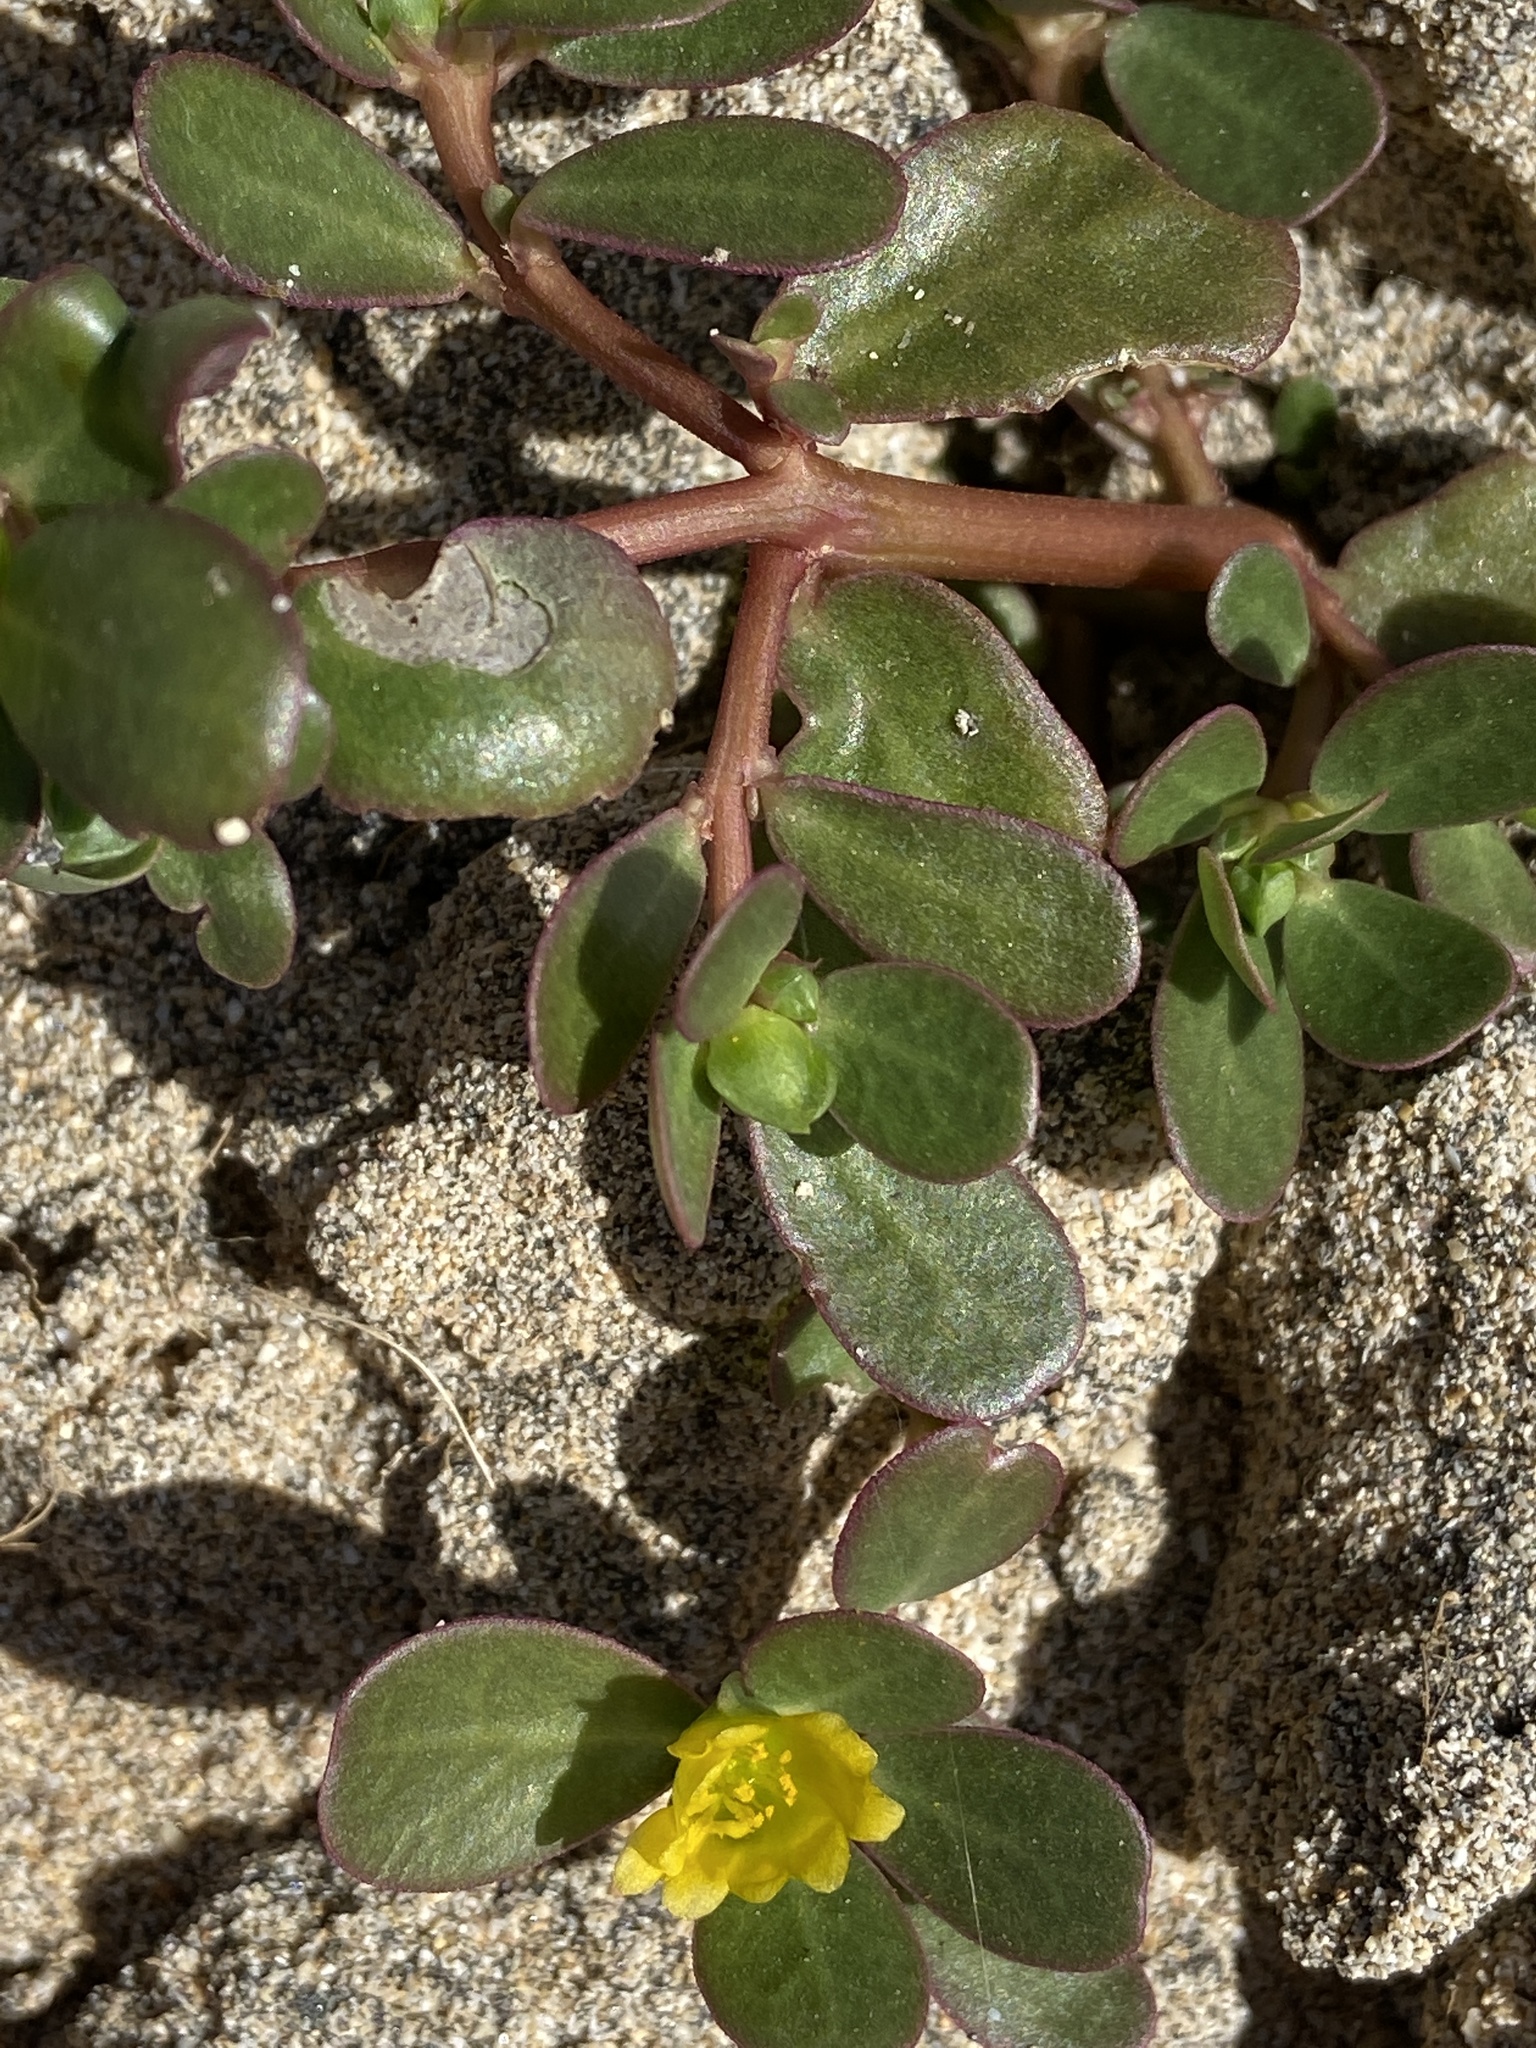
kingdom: Plantae
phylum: Tracheophyta
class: Magnoliopsida
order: Caryophyllales
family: Portulacaceae
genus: Portulaca
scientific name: Portulaca oleracea
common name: Common purslane
